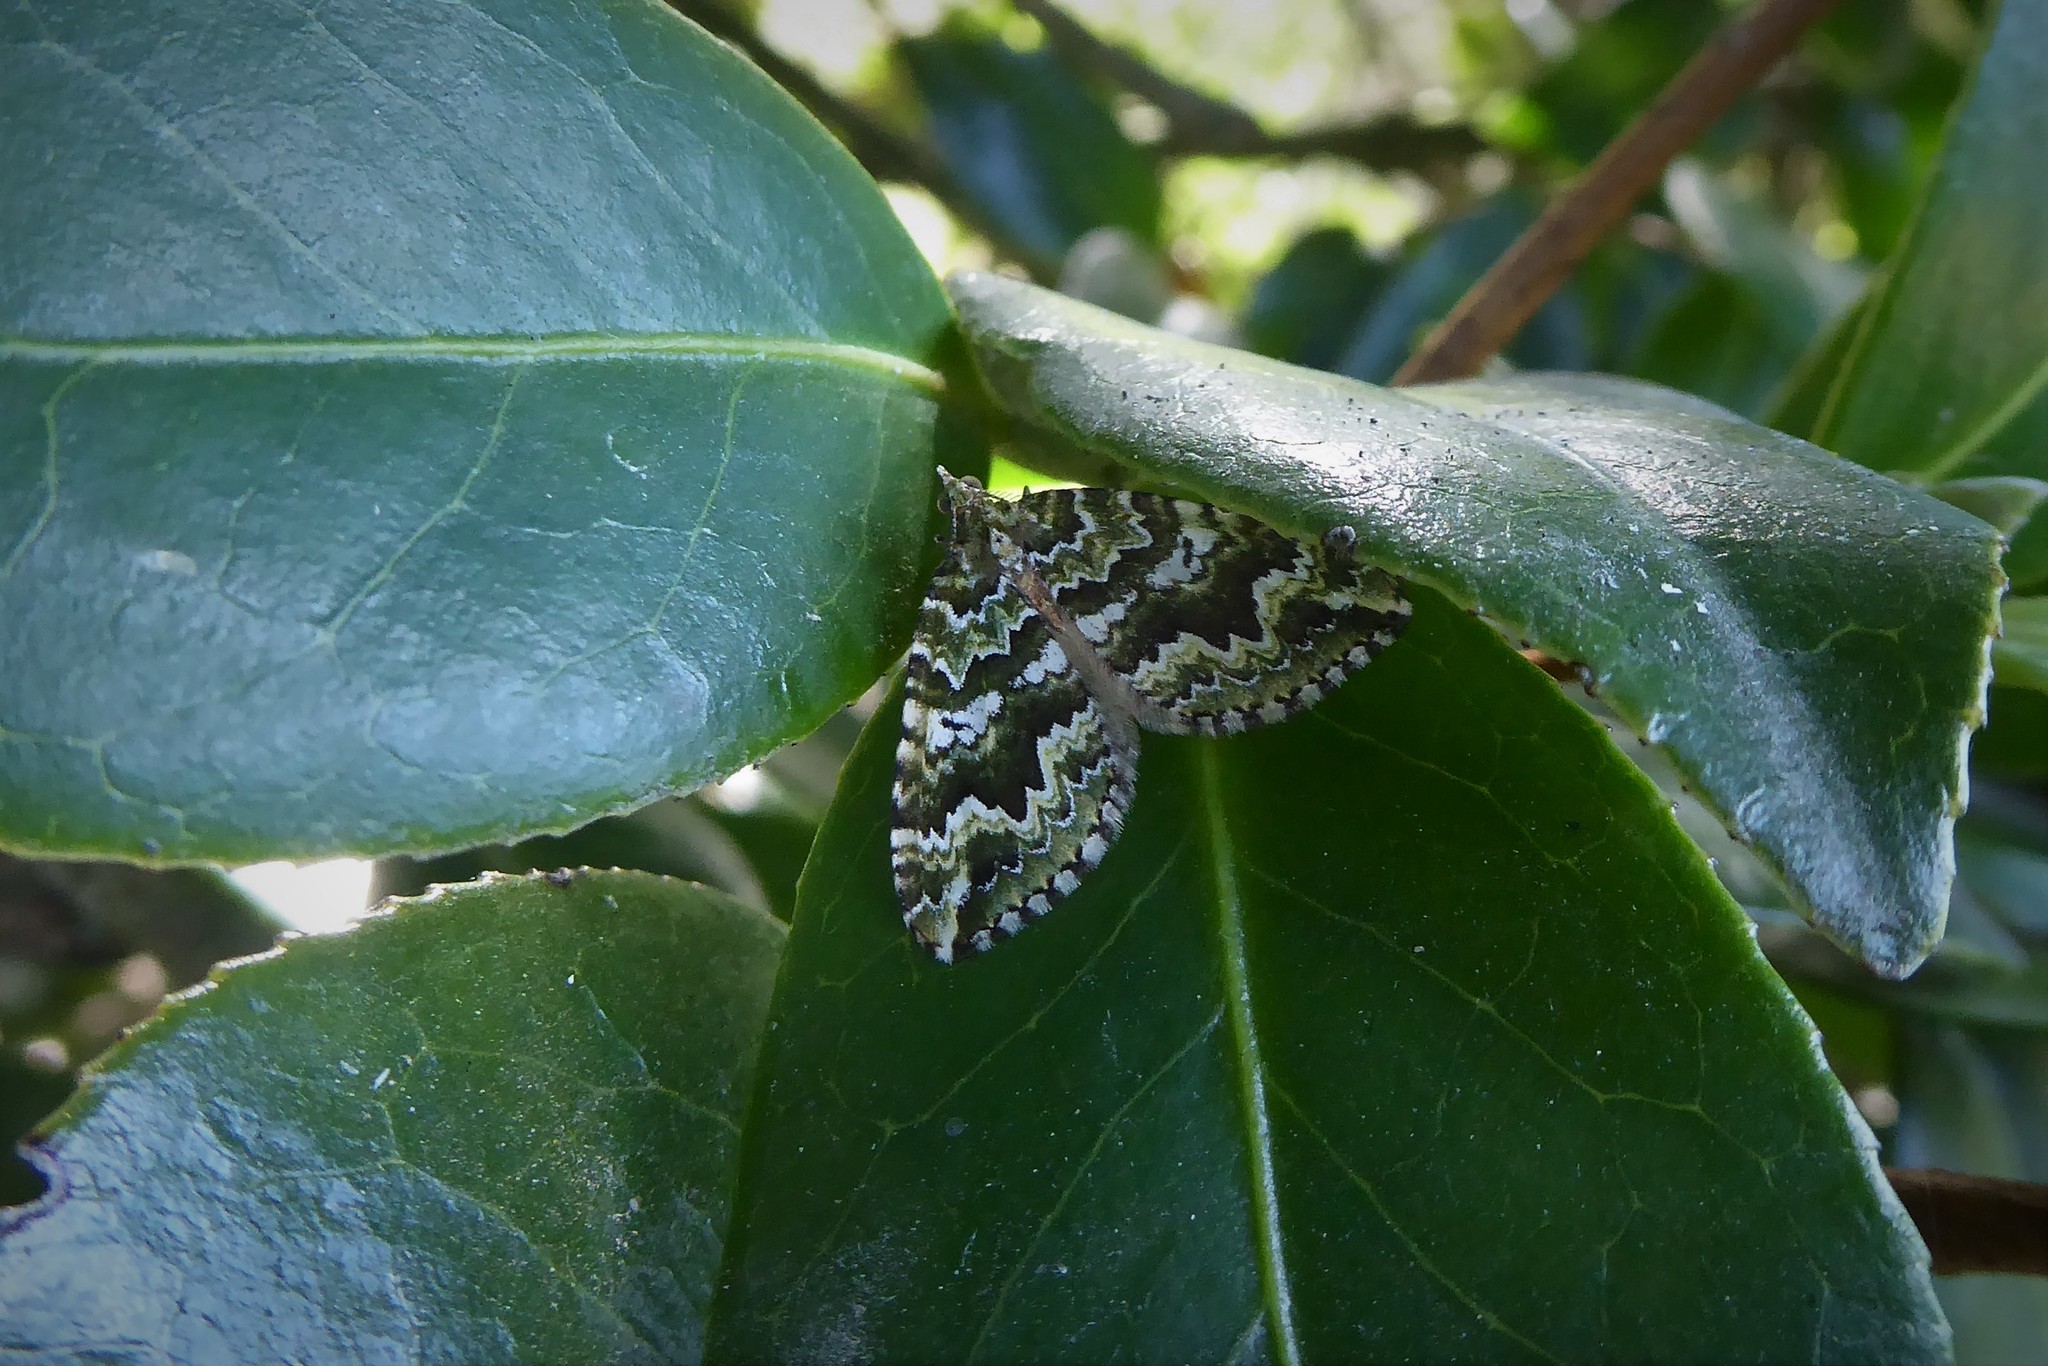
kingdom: Animalia
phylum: Arthropoda
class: Insecta
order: Lepidoptera
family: Geometridae
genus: Asaphodes
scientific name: Asaphodes beata
